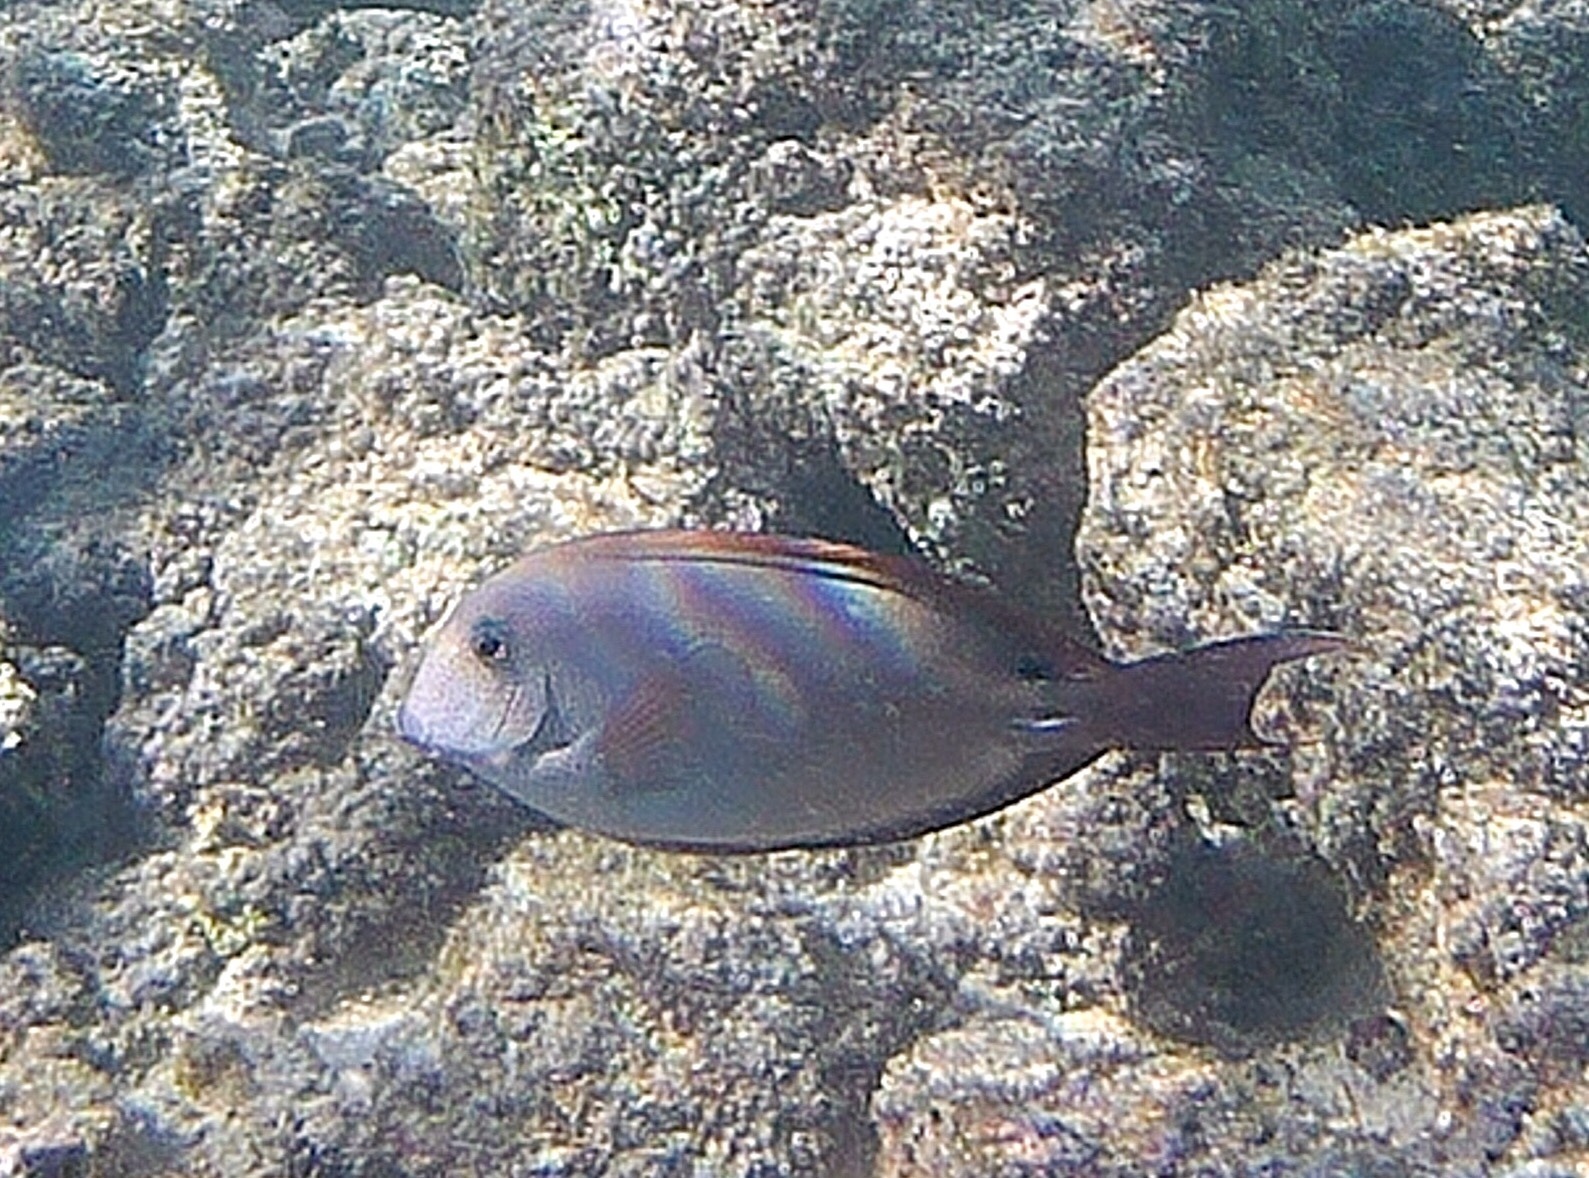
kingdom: Animalia
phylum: Chordata
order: Perciformes
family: Acanthuridae
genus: Acanthurus
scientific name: Acanthurus nigrofuscus
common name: Blackspot surgeonfish
